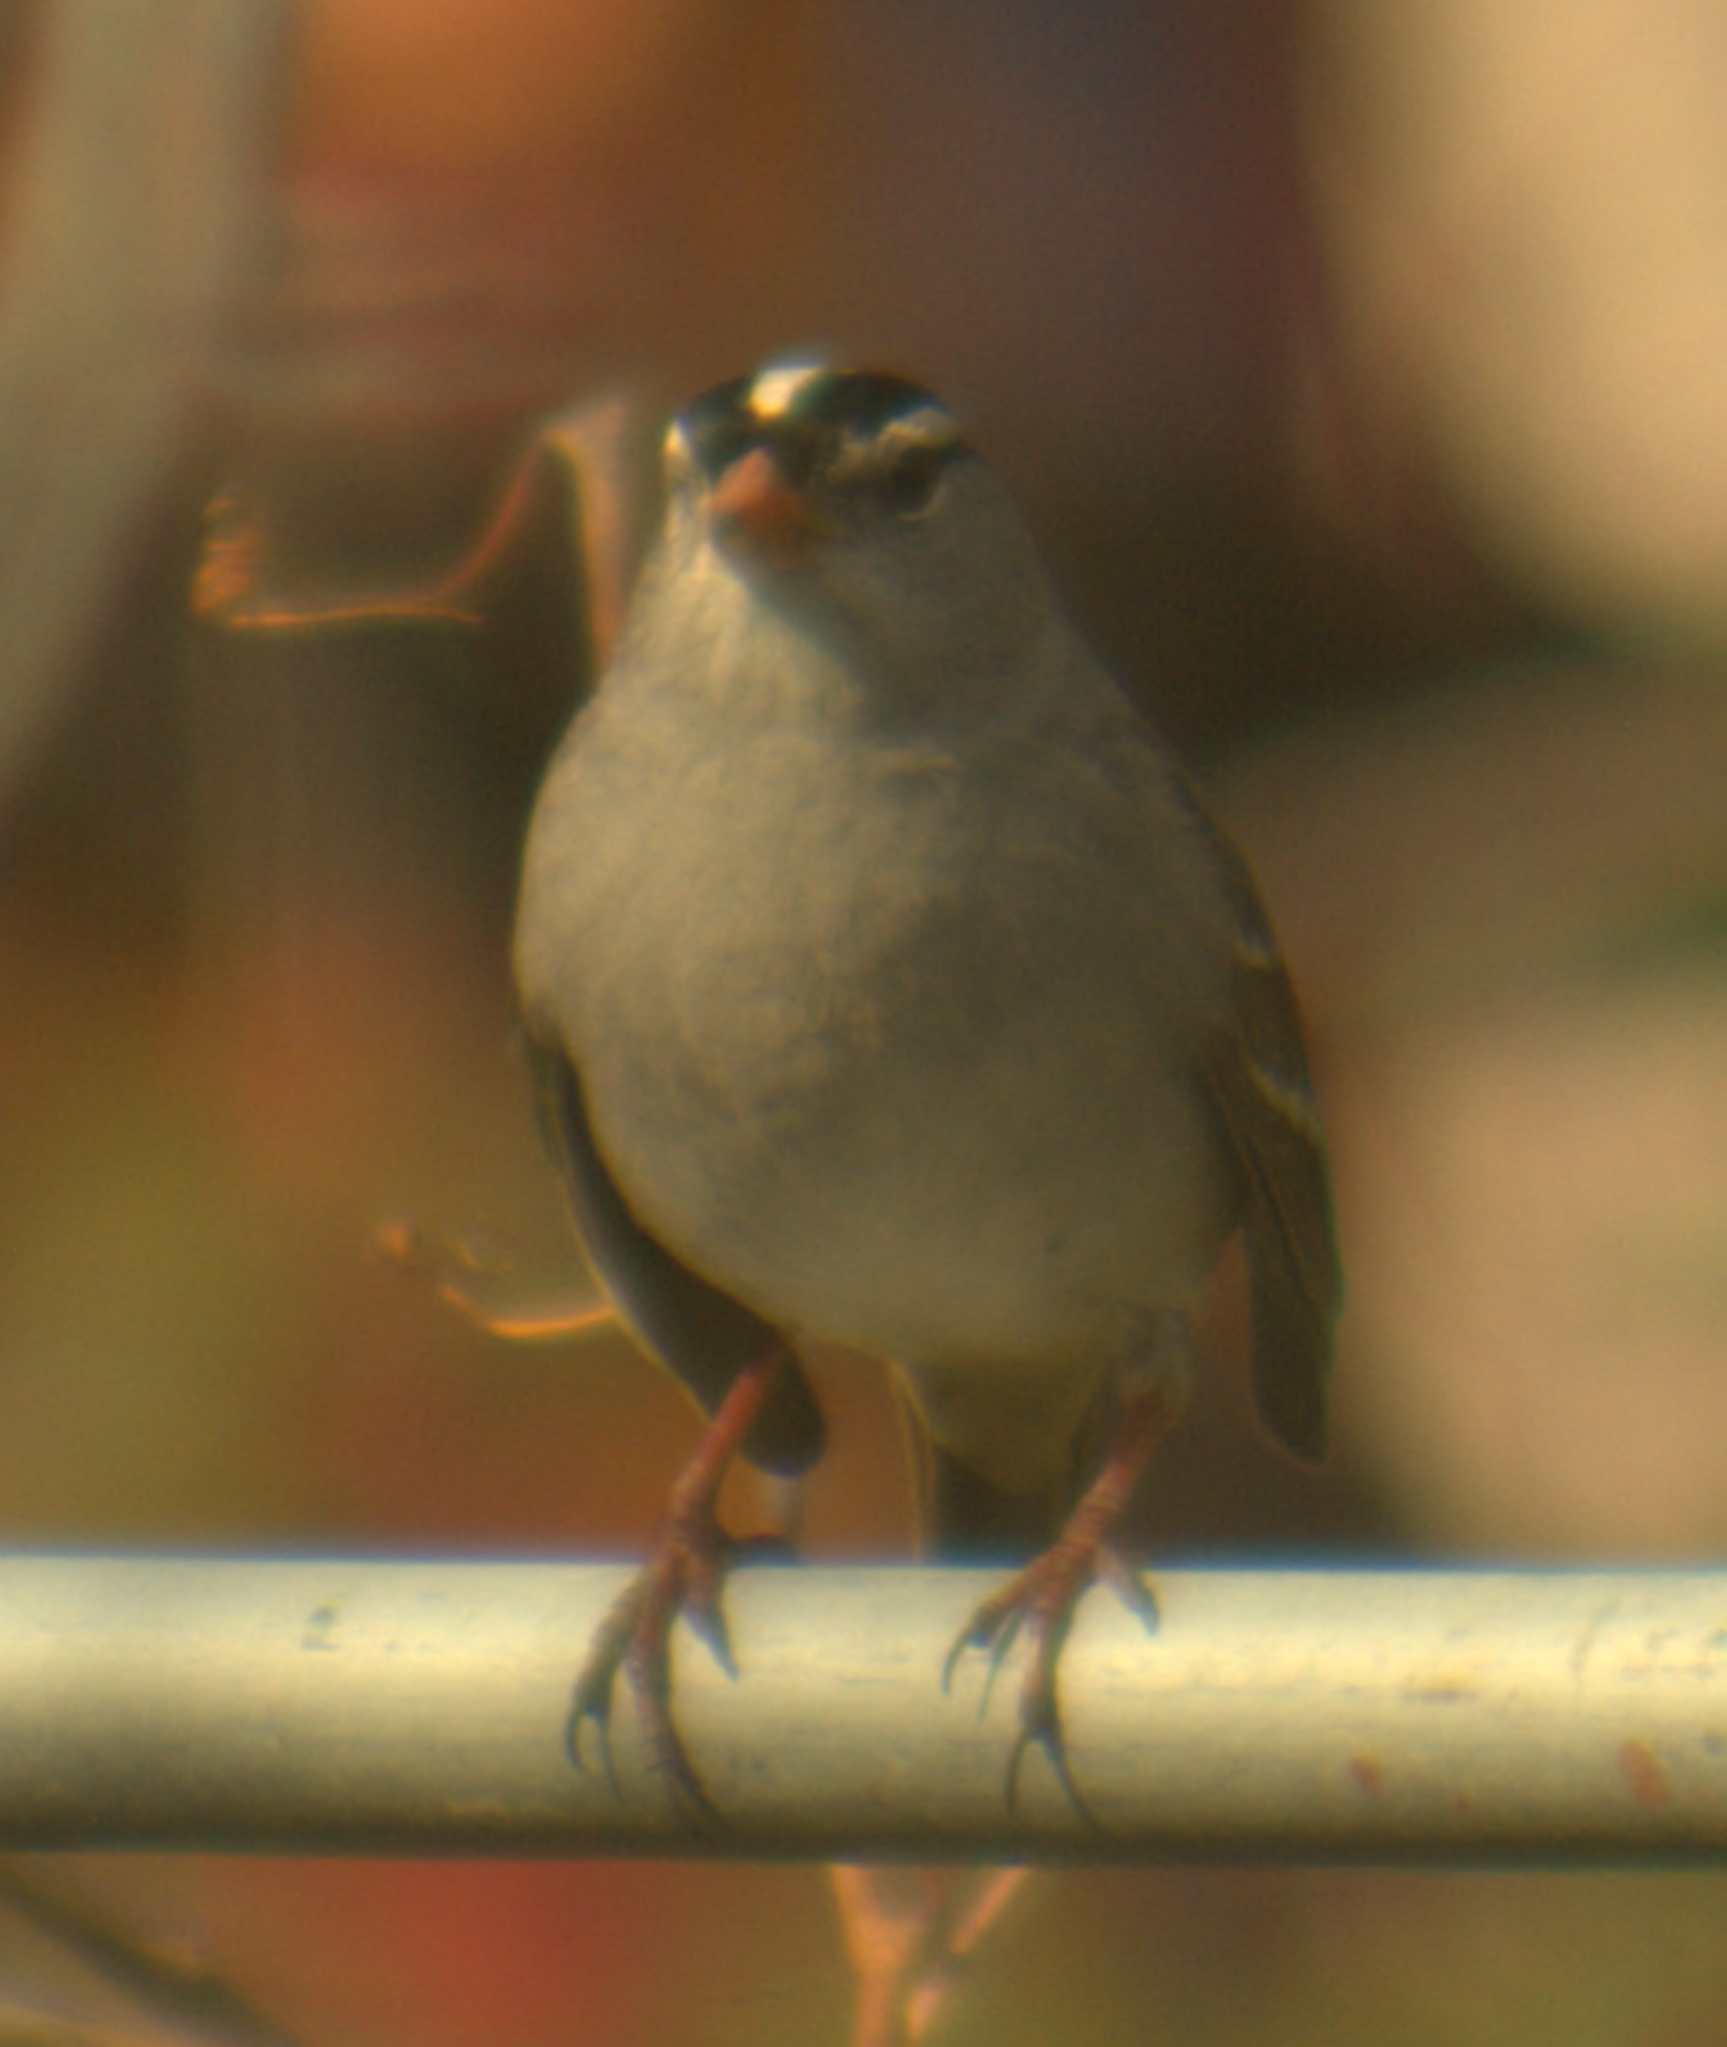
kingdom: Animalia
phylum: Chordata
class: Aves
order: Passeriformes
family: Passerellidae
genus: Zonotrichia
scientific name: Zonotrichia leucophrys
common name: White-crowned sparrow
